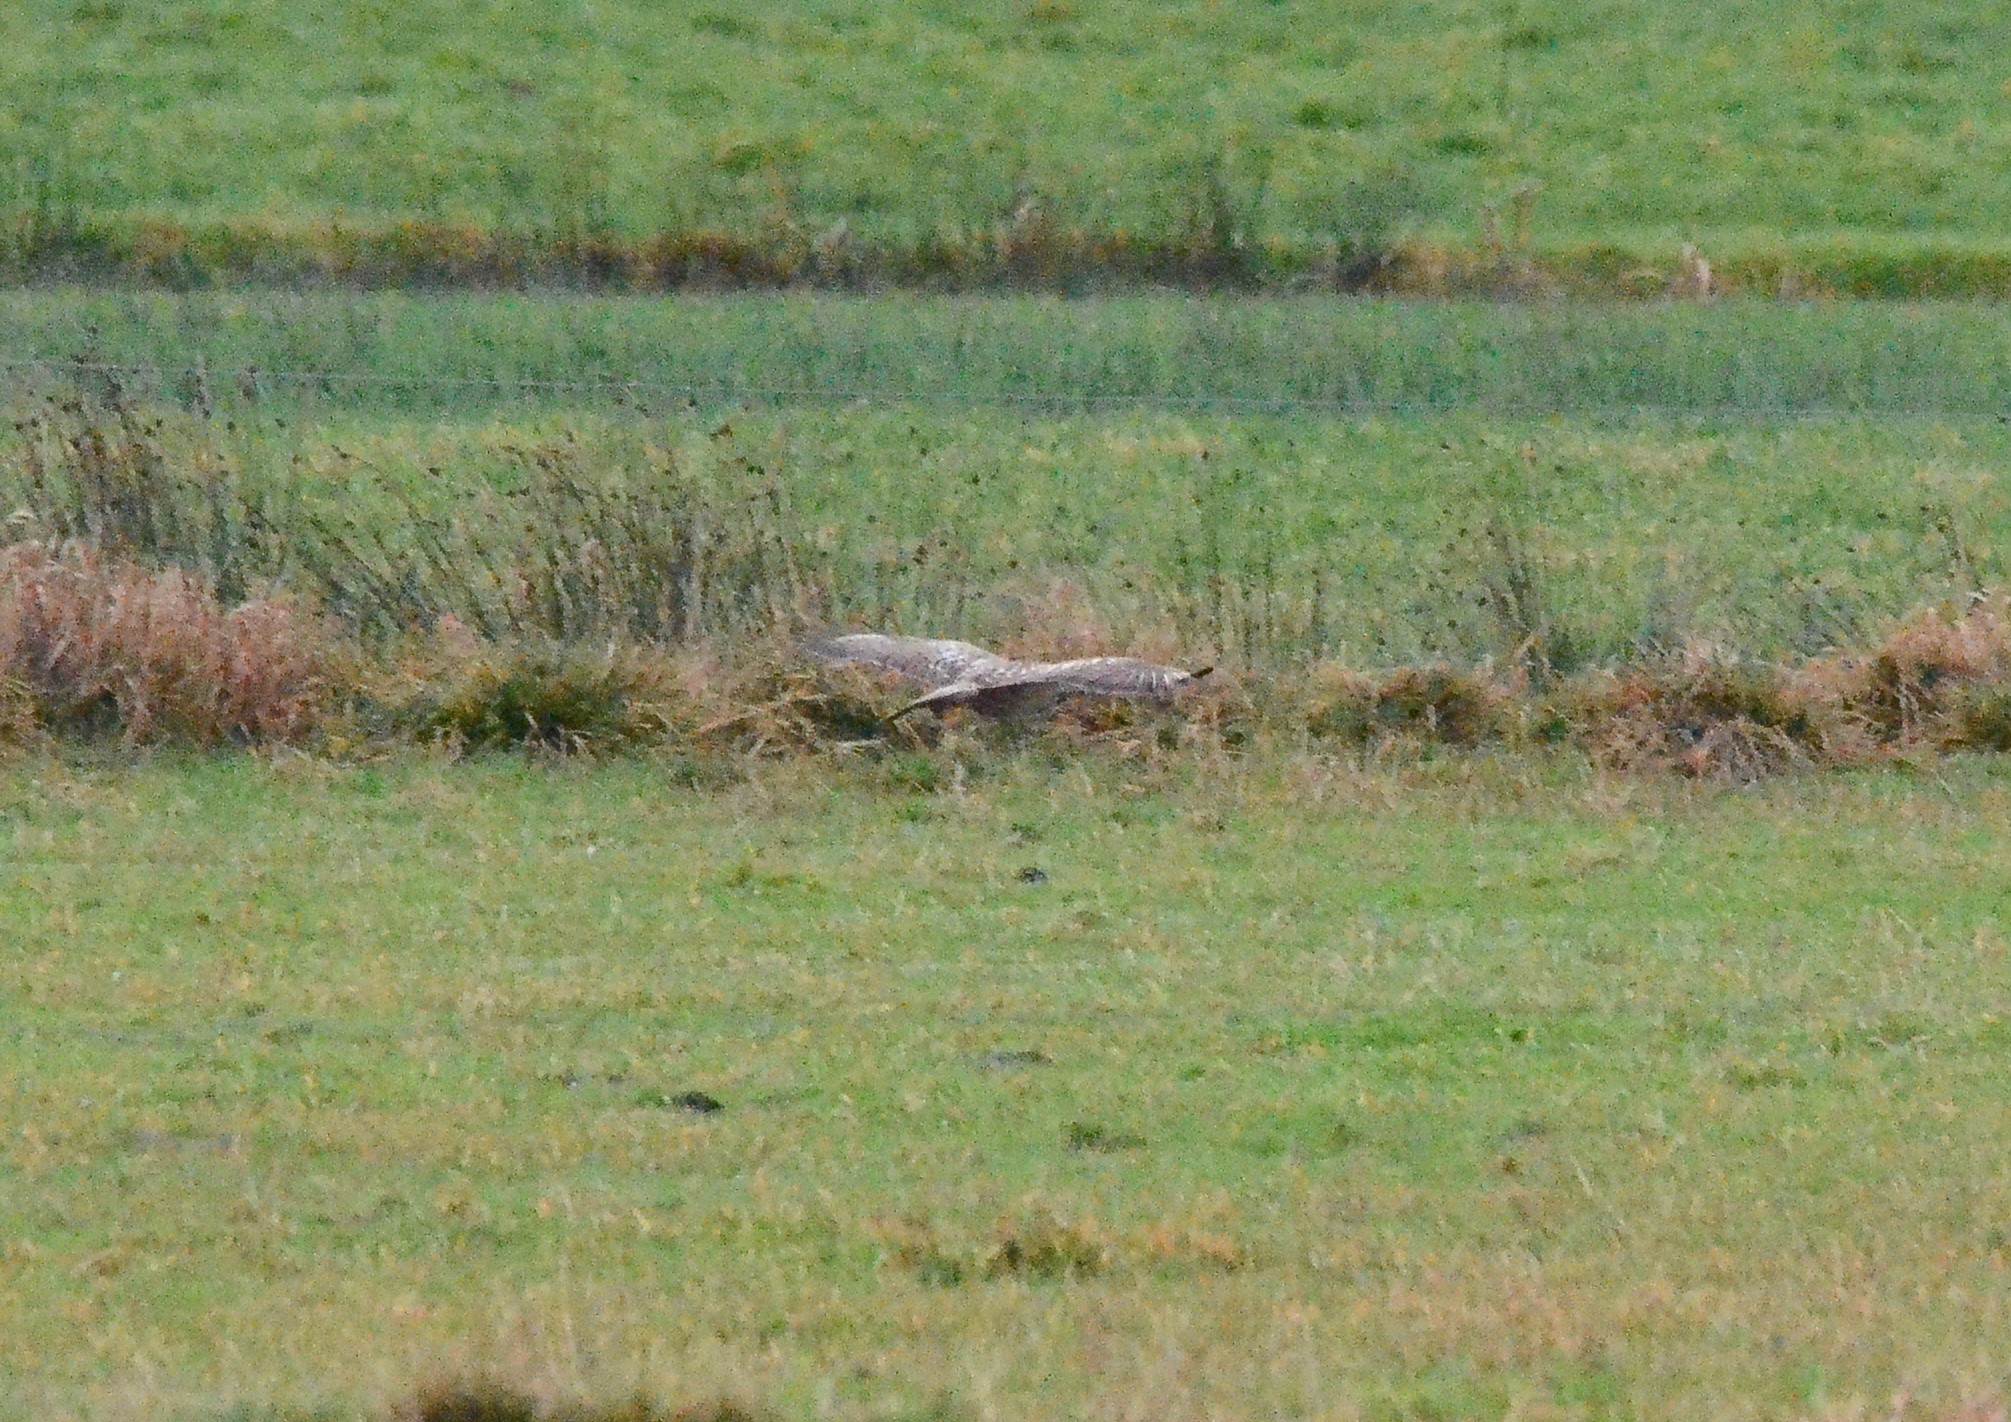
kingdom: Animalia
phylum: Chordata
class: Aves
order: Accipitriformes
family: Accipitridae
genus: Buteo
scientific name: Buteo buteo
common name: Common buzzard
